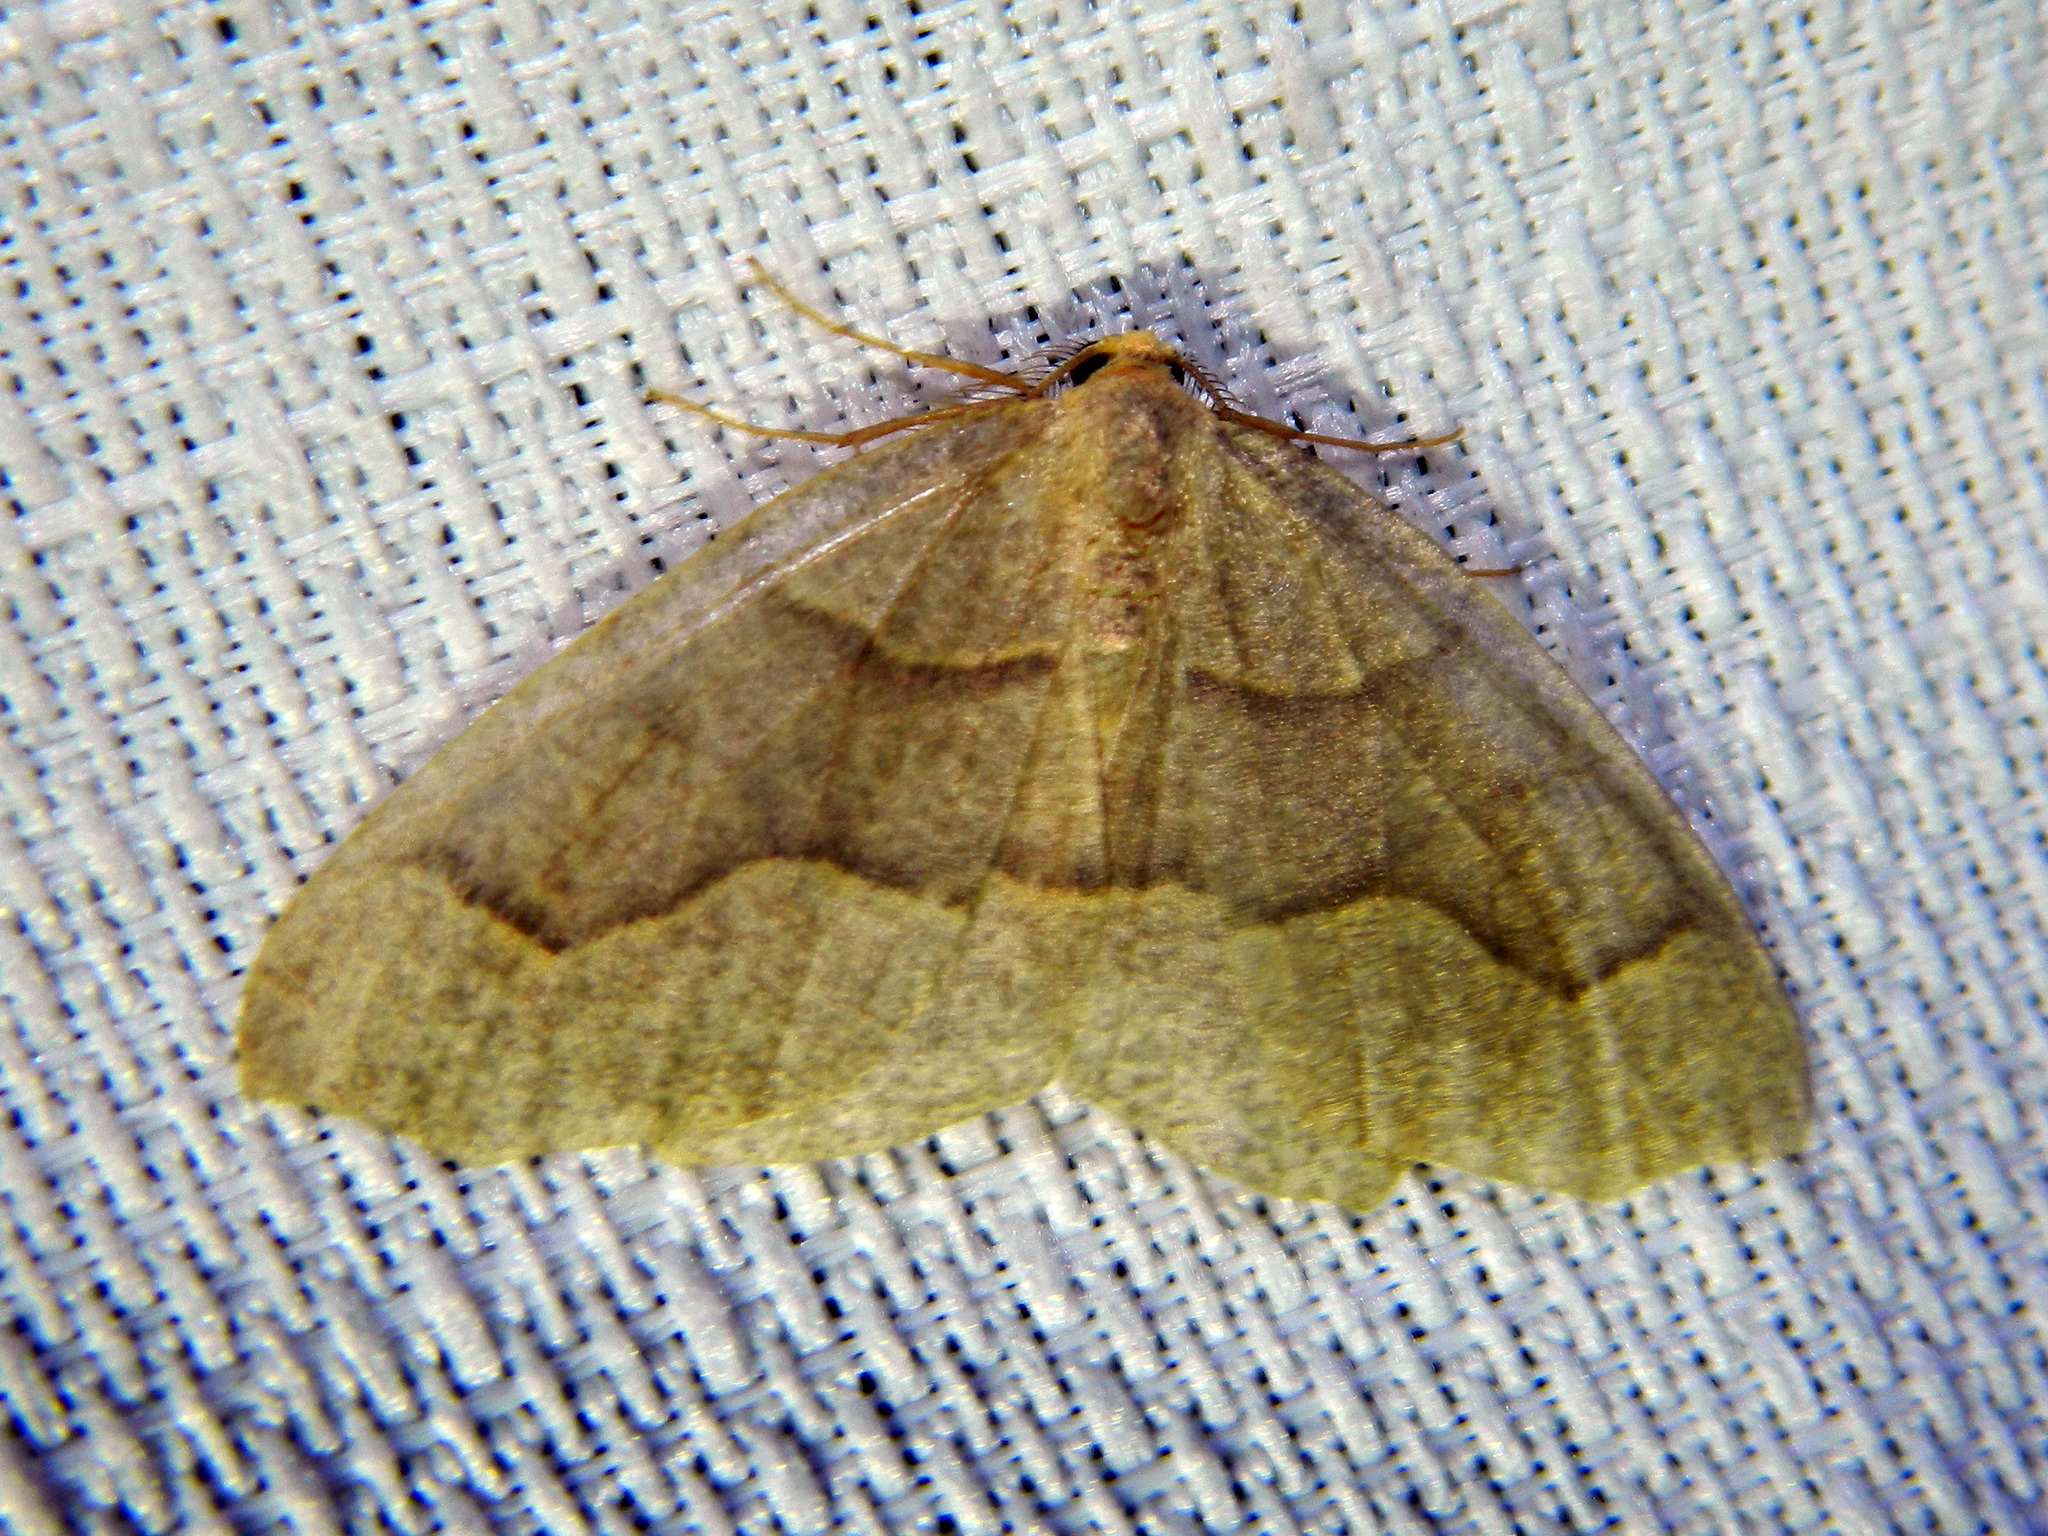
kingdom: Animalia
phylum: Arthropoda
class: Insecta
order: Lepidoptera
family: Geometridae
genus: Lambdina
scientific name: Lambdina fiscellaria
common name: Hemlock looper
